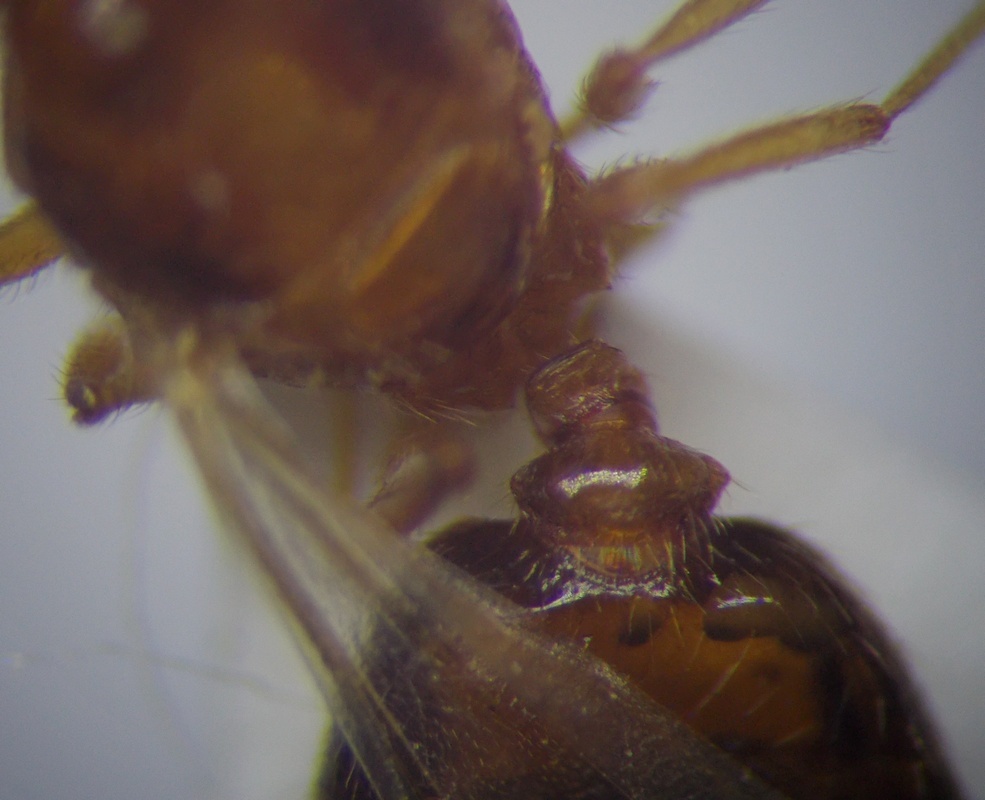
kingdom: Animalia
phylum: Arthropoda
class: Insecta
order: Hymenoptera
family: Formicidae
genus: Pheidole
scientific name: Pheidole pallidula
